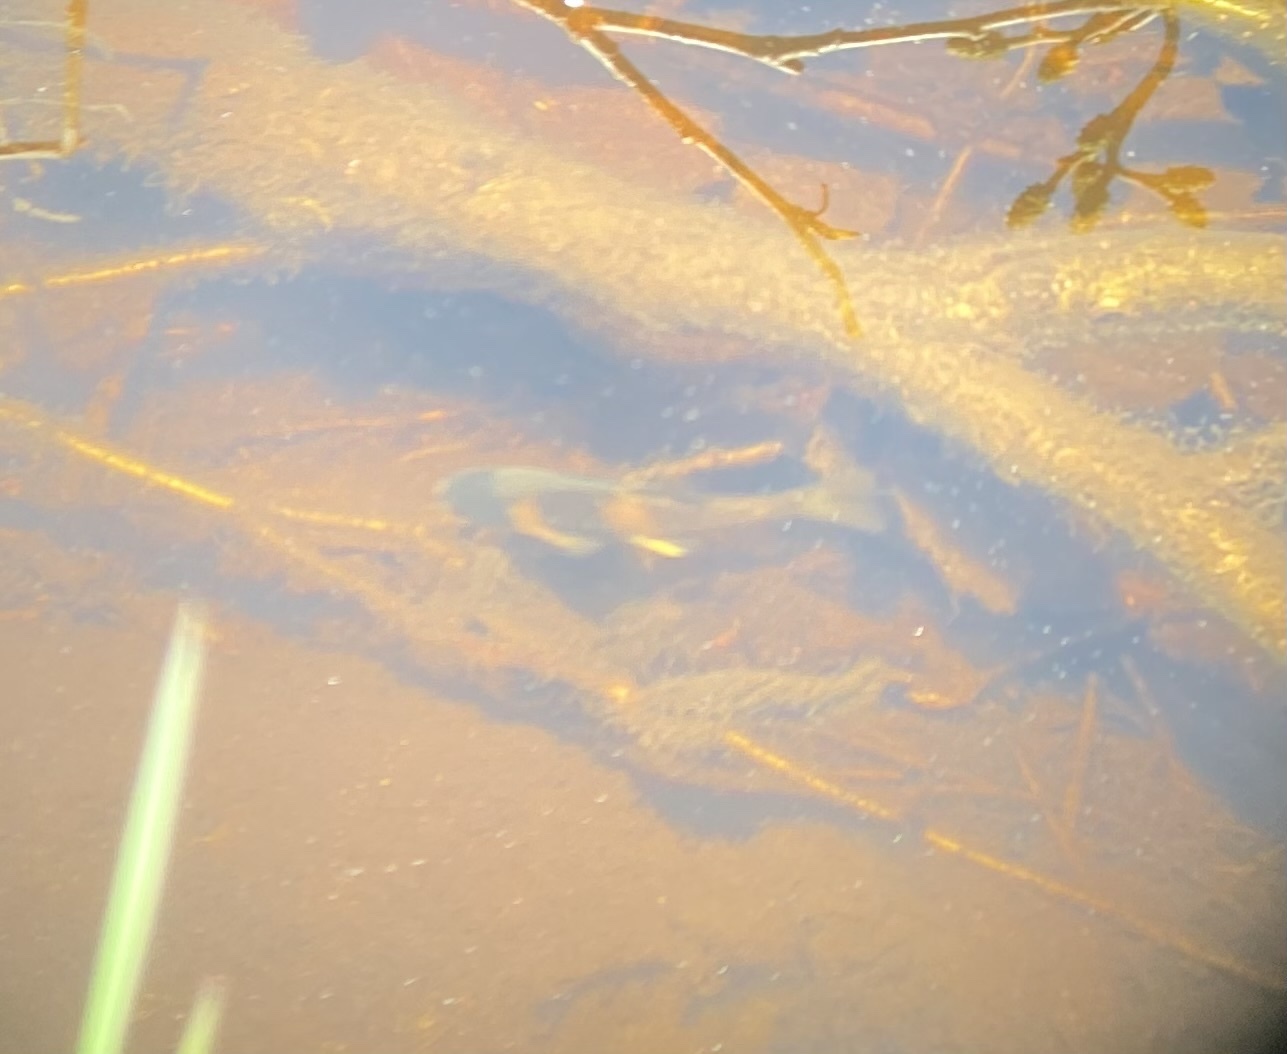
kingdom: Animalia
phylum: Chordata
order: Cypriniformes
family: Cyprinidae
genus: Pimephales
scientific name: Pimephales promelas
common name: Fathead minnow
